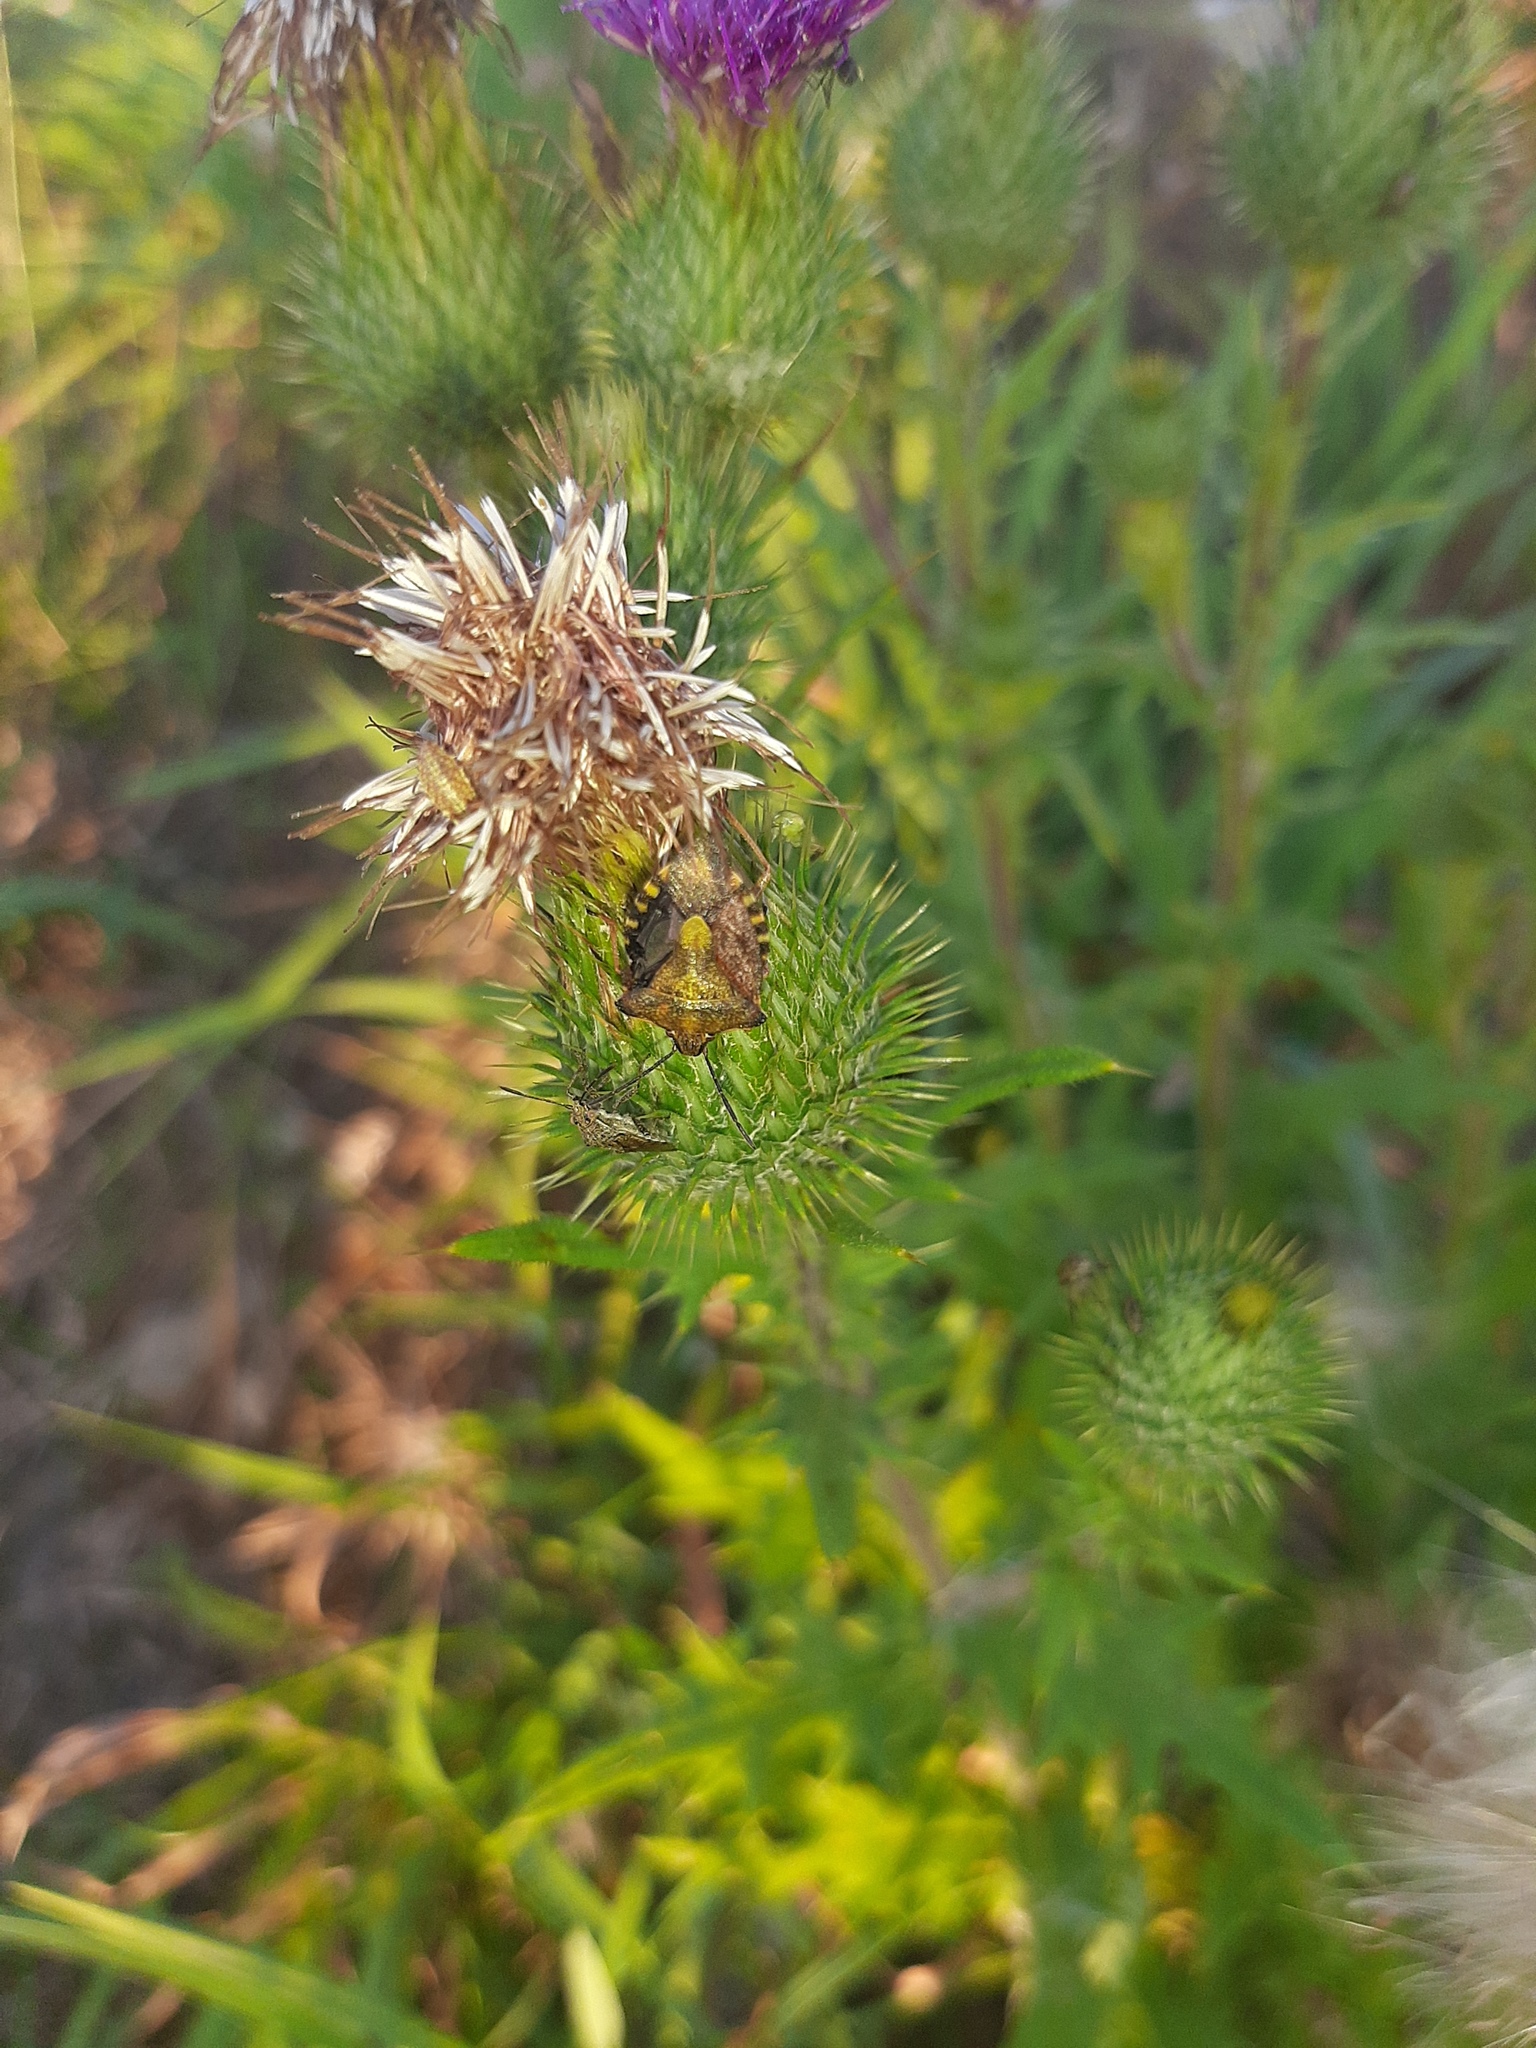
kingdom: Animalia
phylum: Arthropoda
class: Insecta
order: Hemiptera
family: Pentatomidae
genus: Carpocoris
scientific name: Carpocoris purpureipennis
